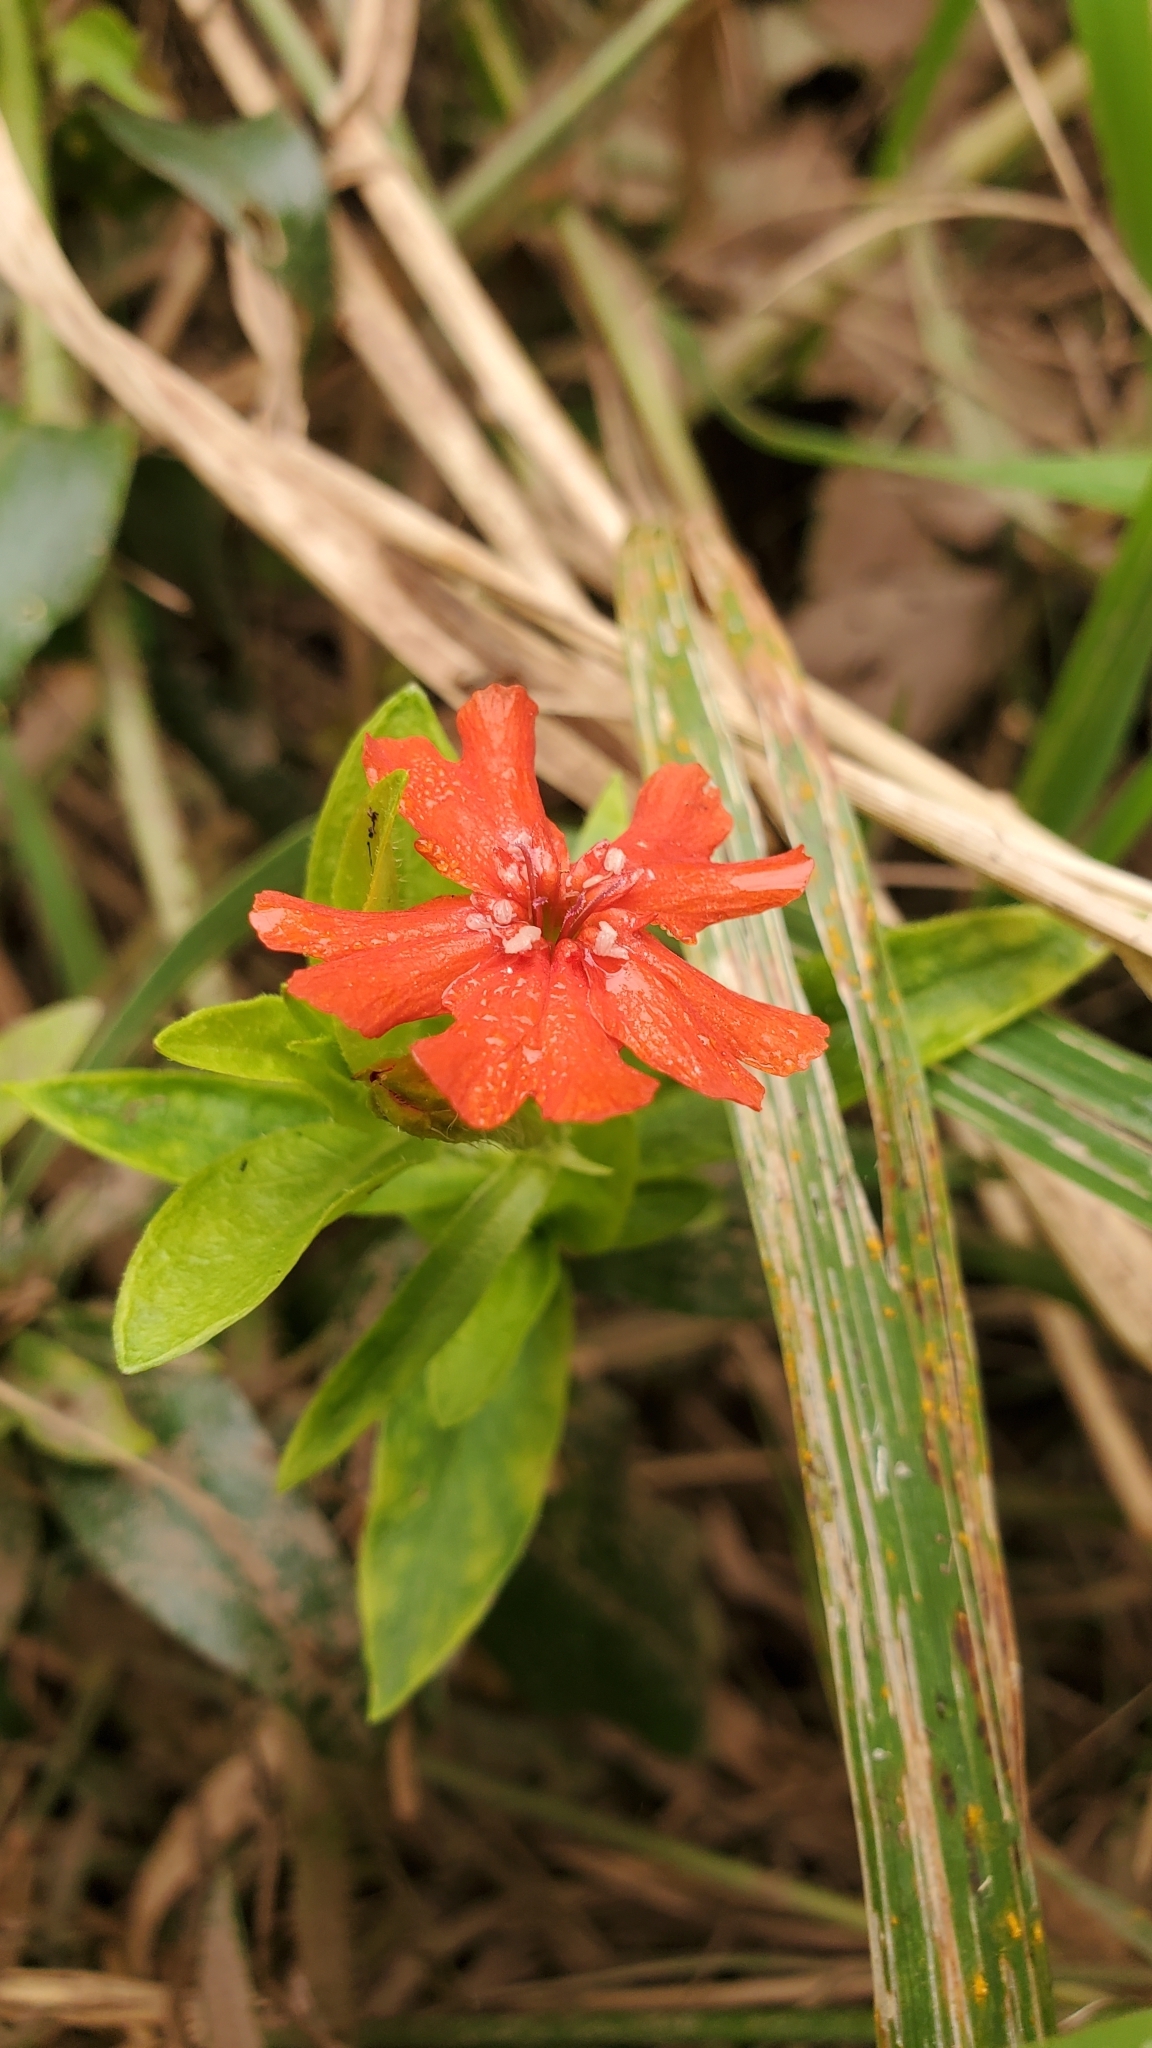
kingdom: Plantae
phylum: Tracheophyta
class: Magnoliopsida
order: Caryophyllales
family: Caryophyllaceae
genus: Silene
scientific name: Silene chalcedonica
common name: Maltese-cross
